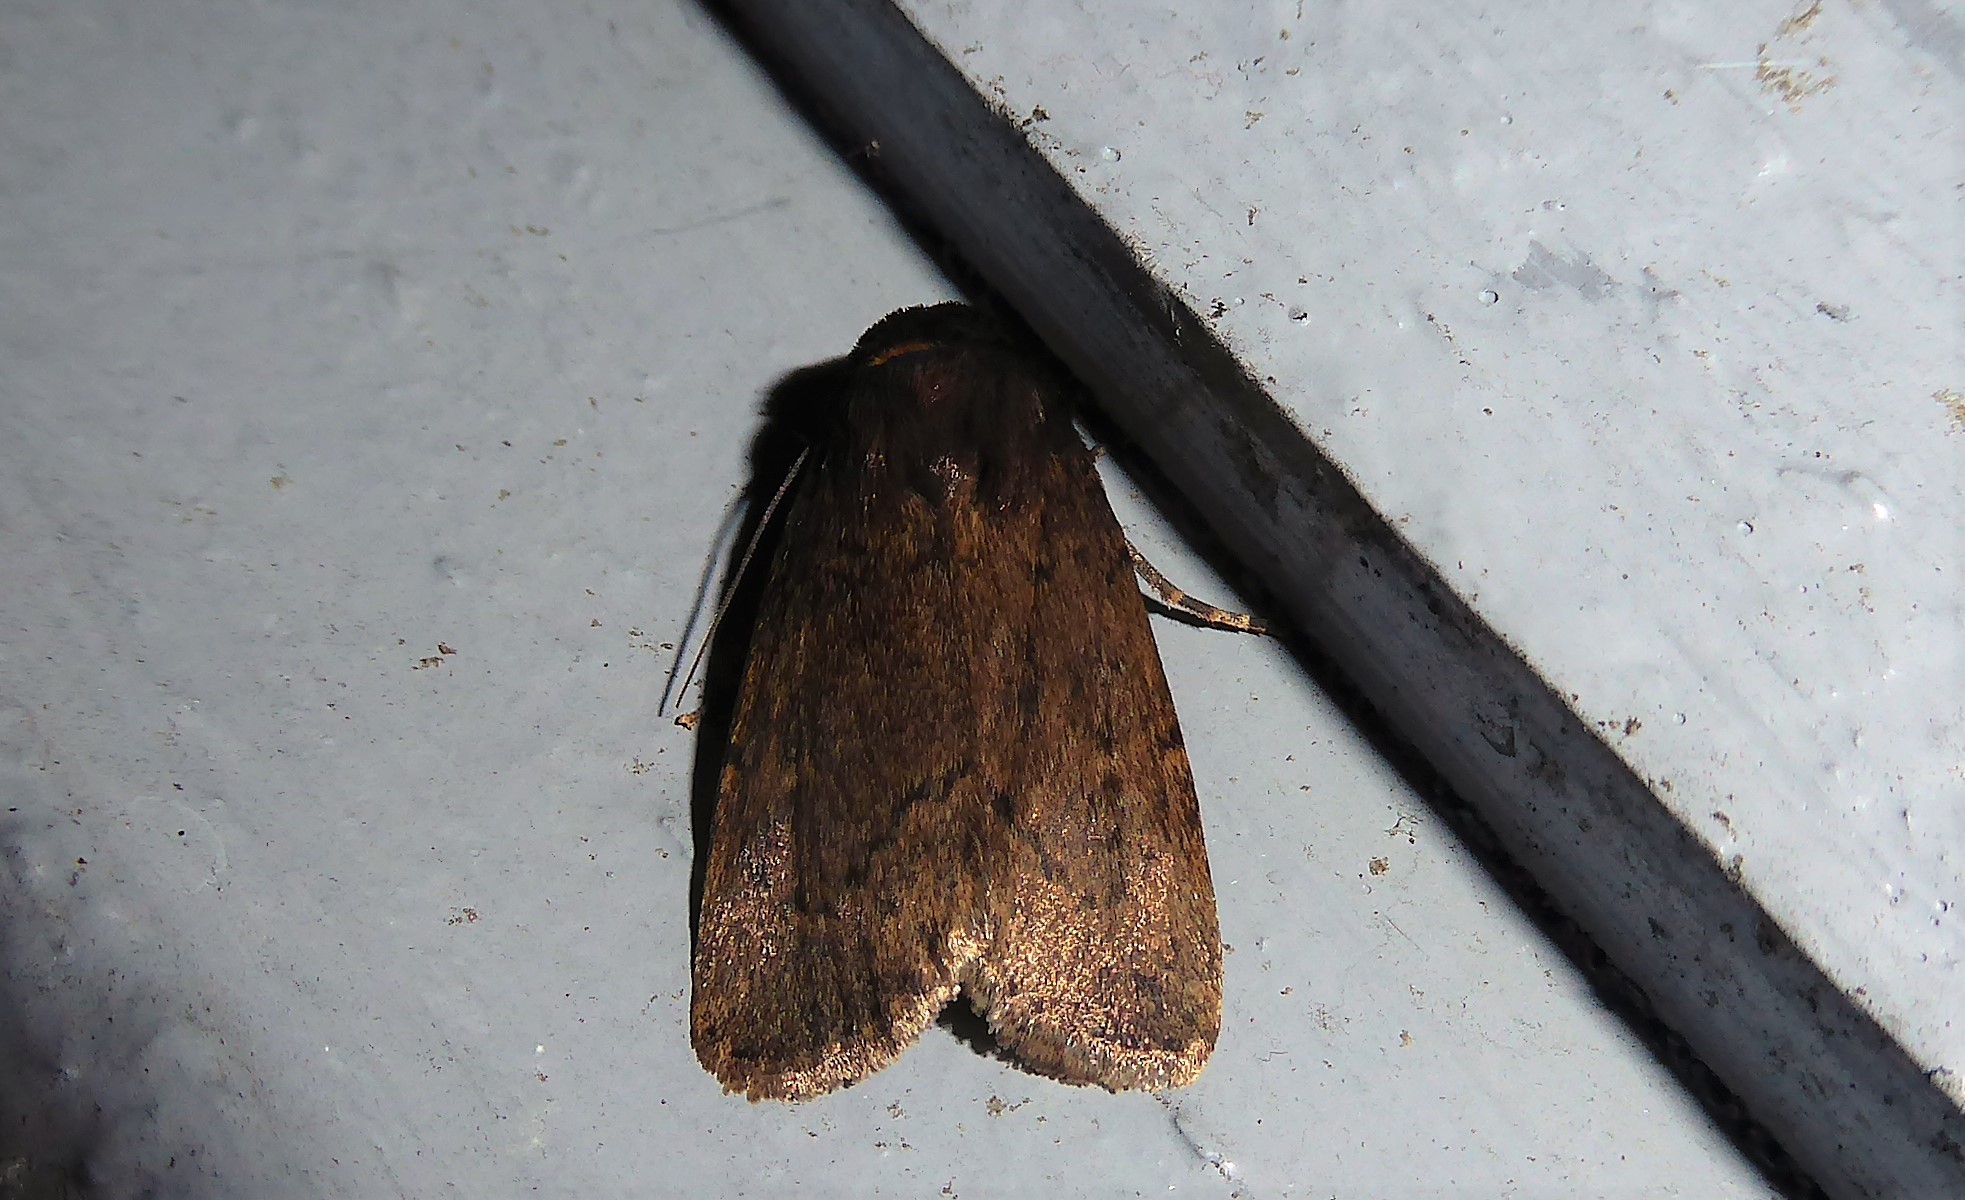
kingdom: Animalia
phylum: Arthropoda
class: Insecta
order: Lepidoptera
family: Noctuidae
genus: Bityla
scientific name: Bityla defigurata
